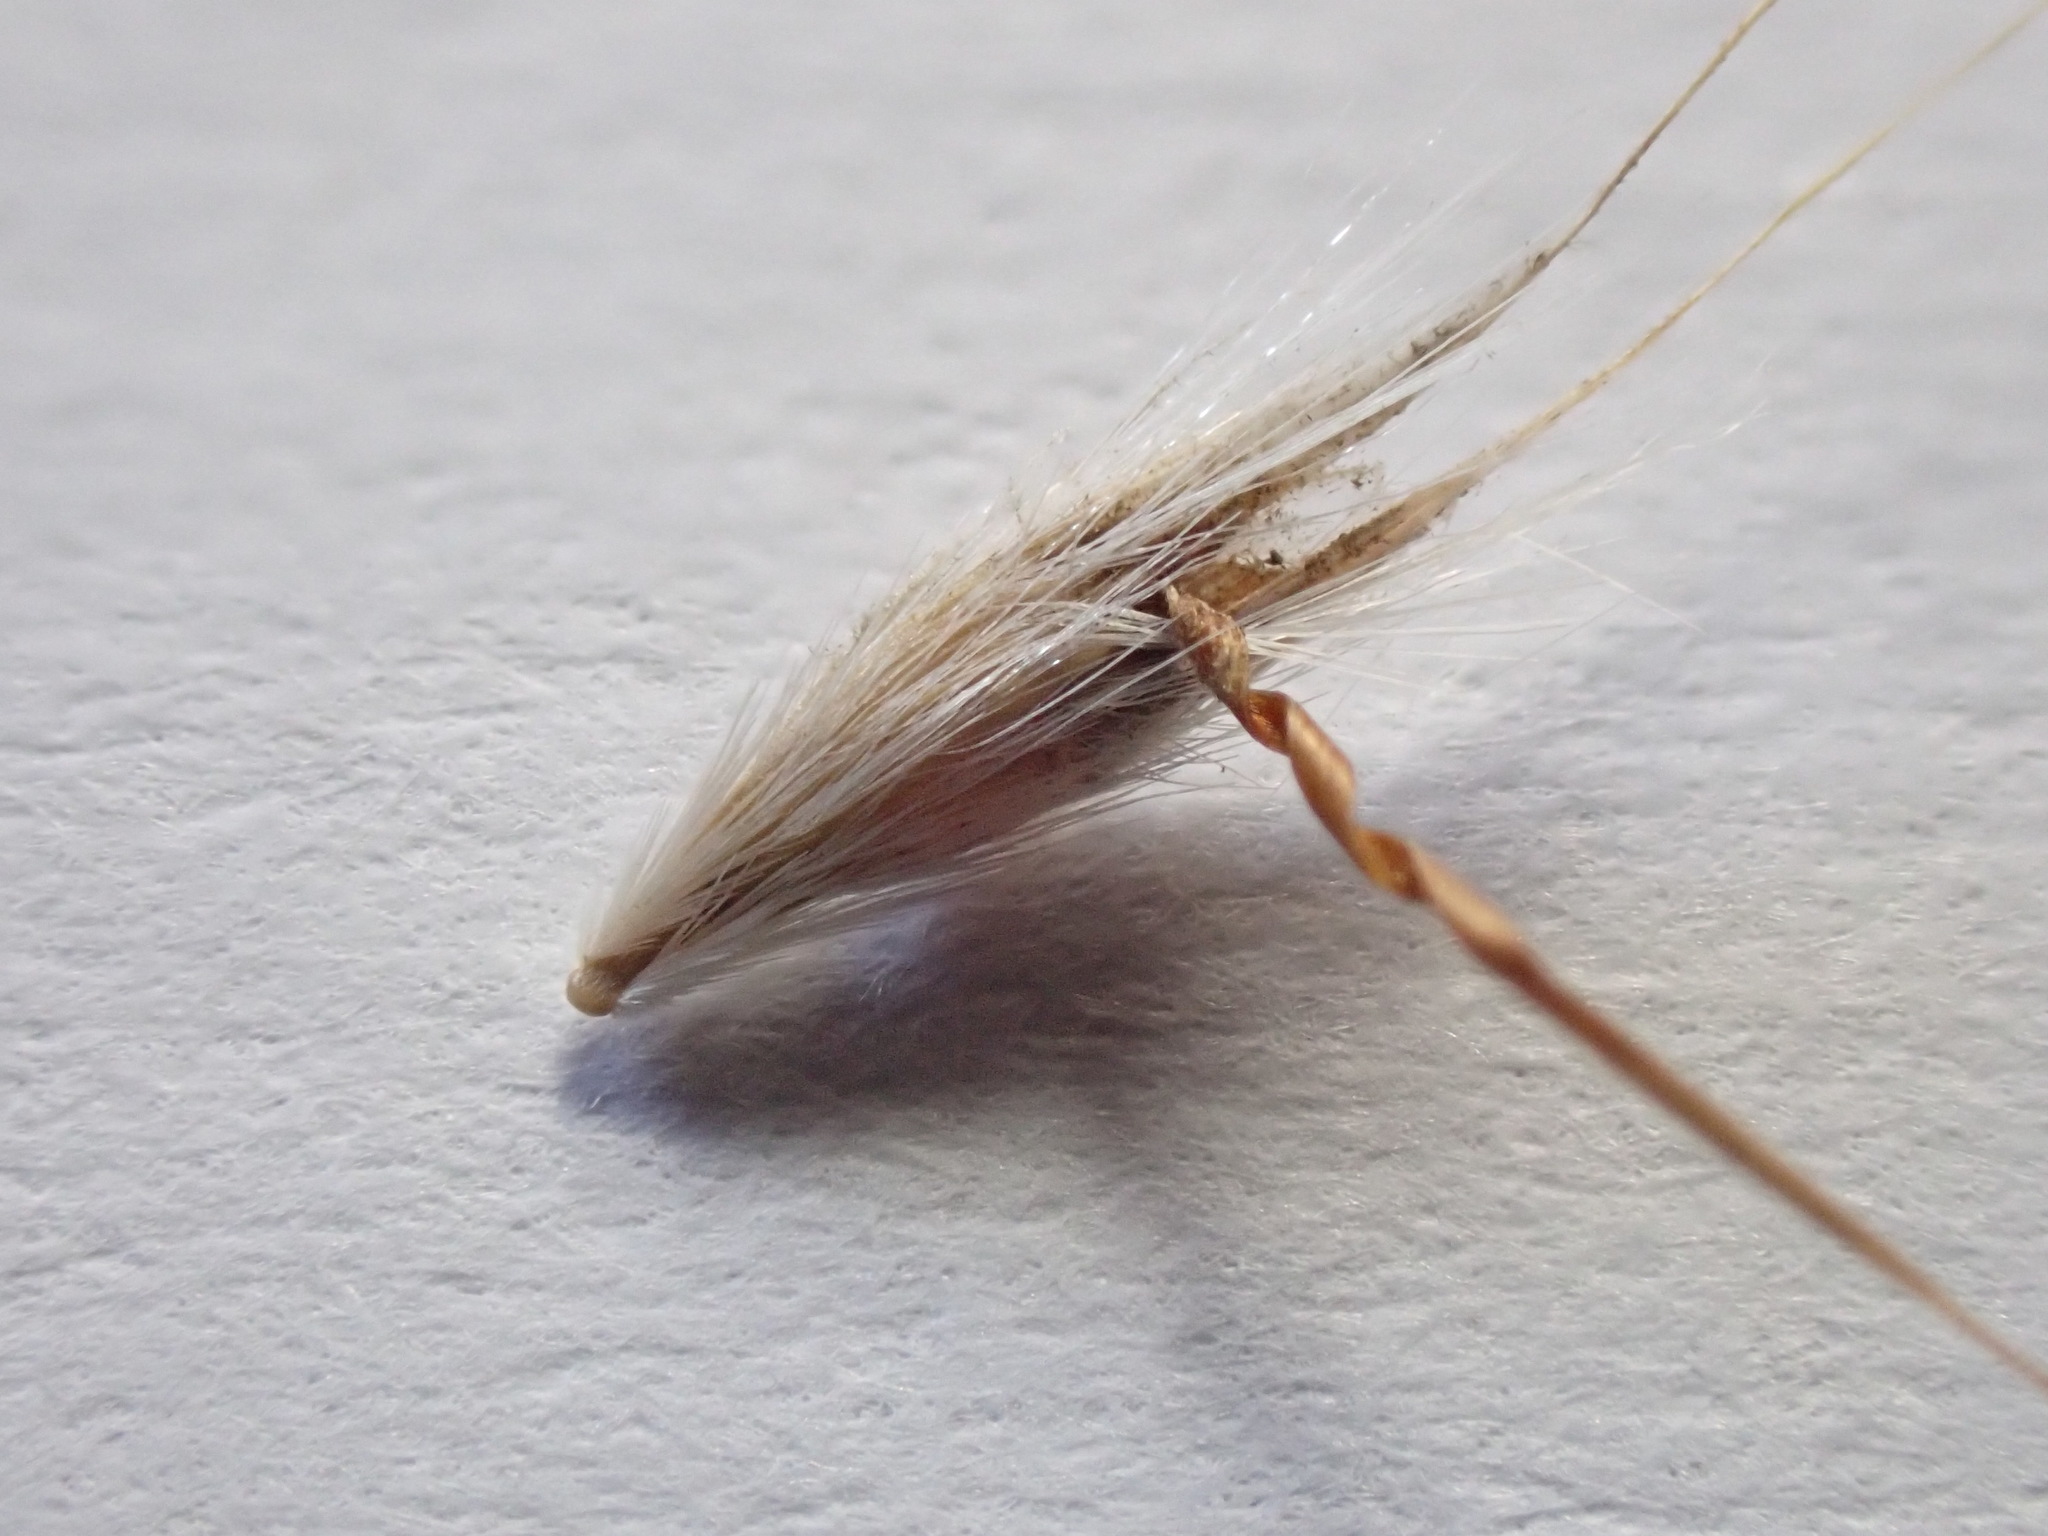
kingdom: Plantae
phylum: Tracheophyta
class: Liliopsida
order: Poales
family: Poaceae
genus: Rytidosperma
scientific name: Rytidosperma bipartitum
